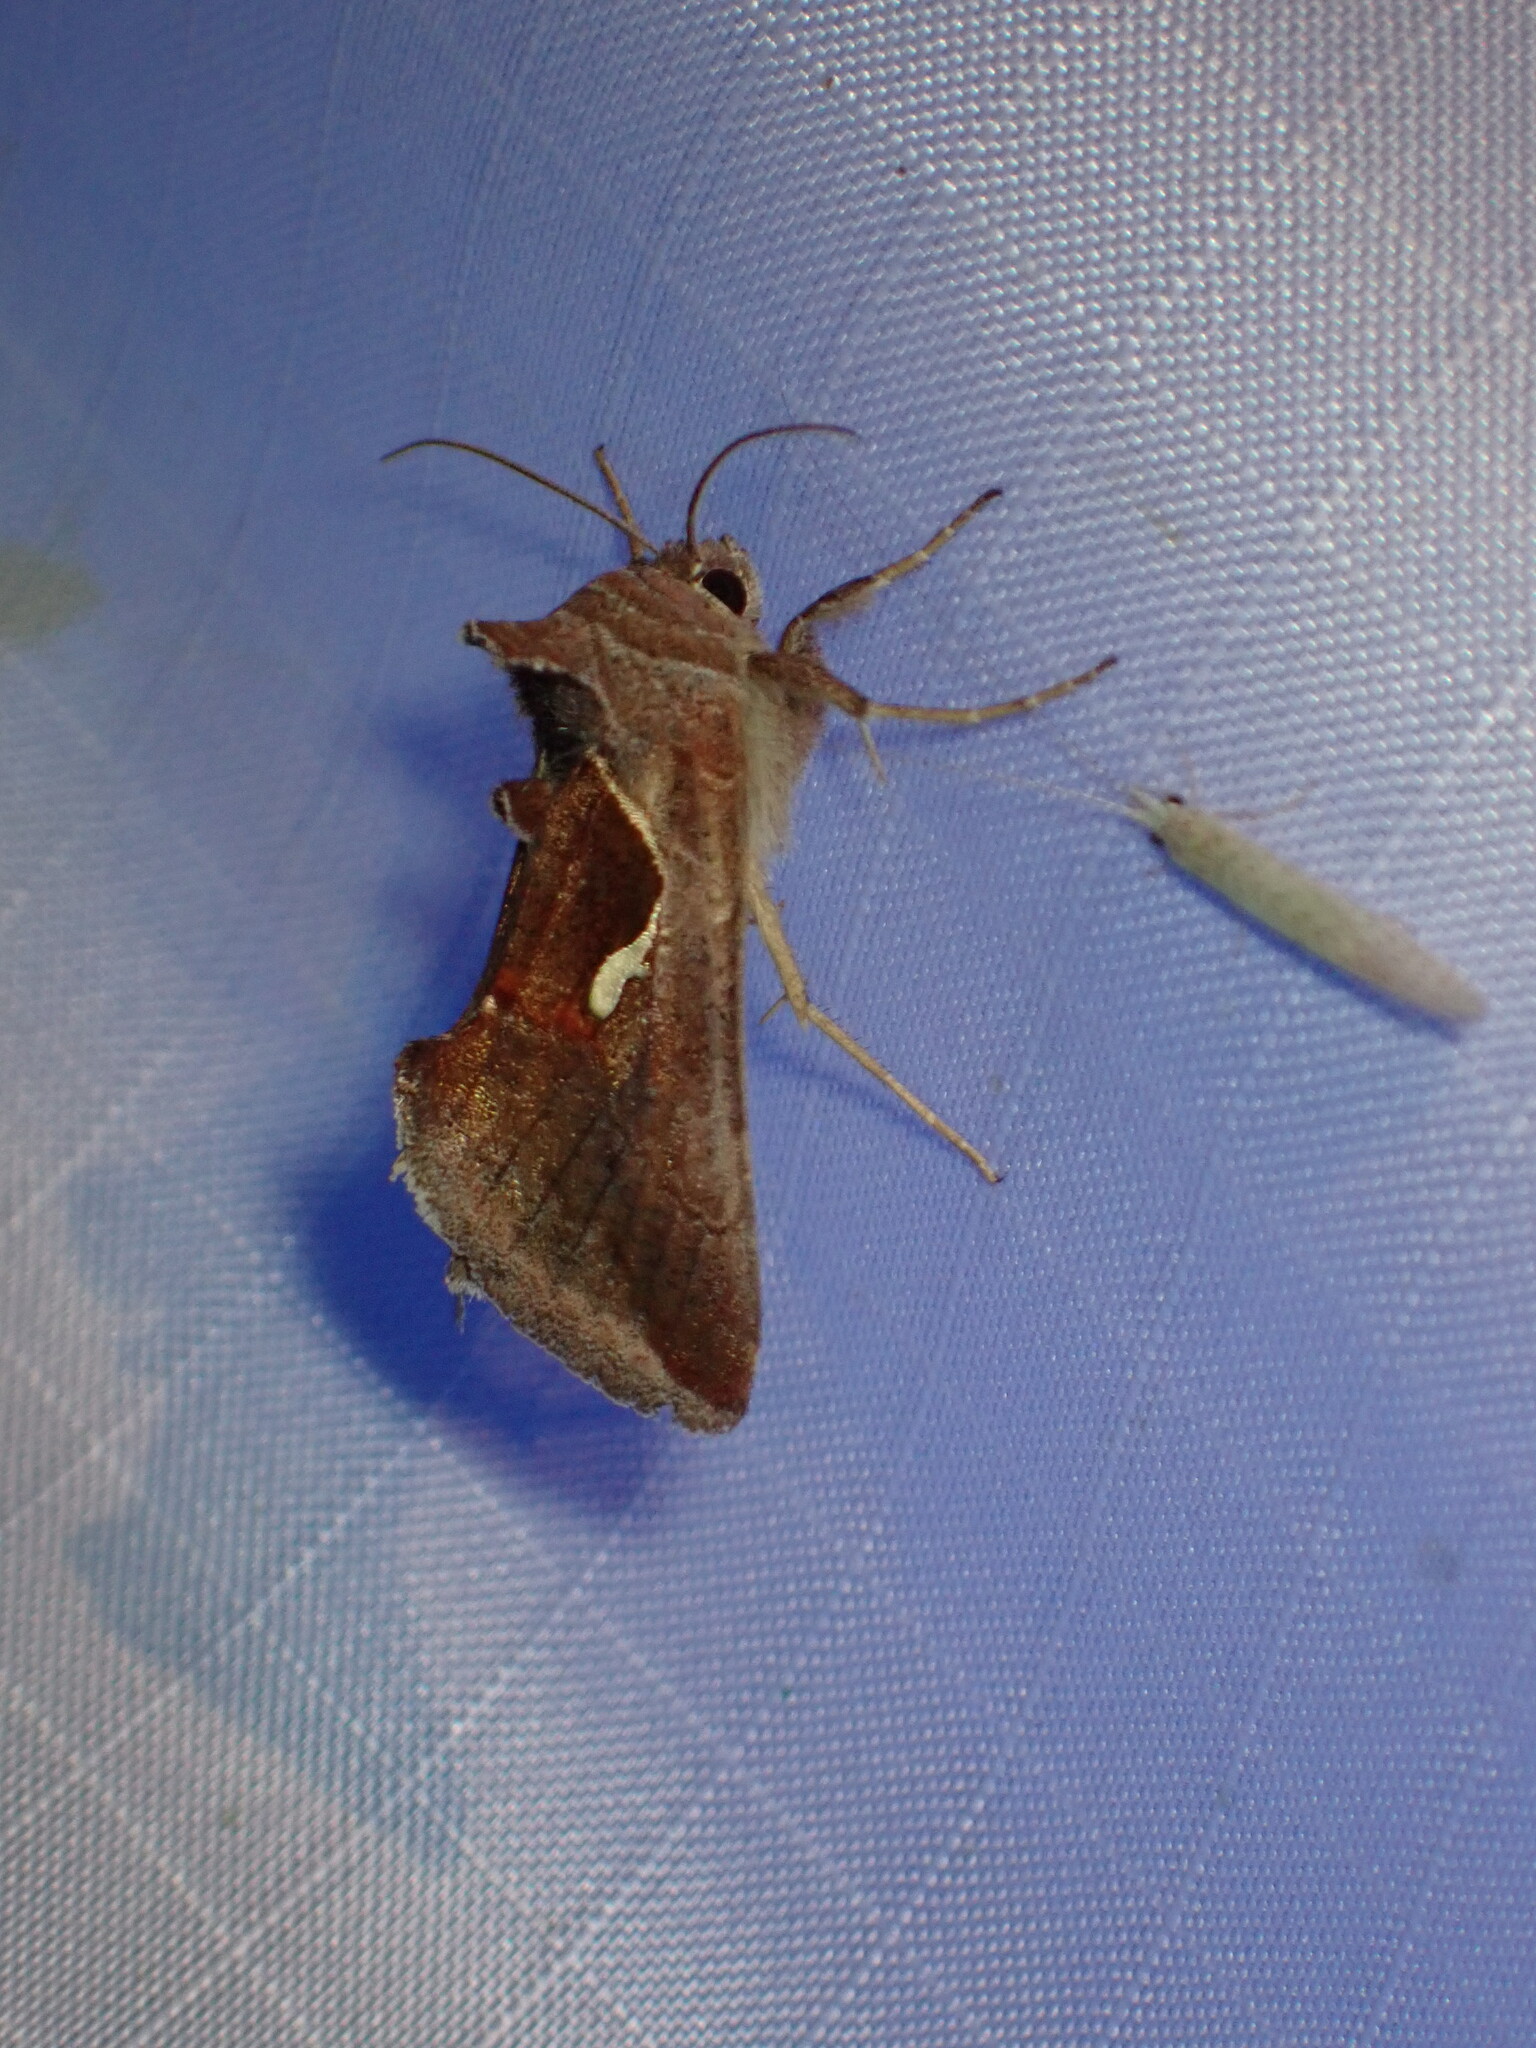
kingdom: Animalia
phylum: Arthropoda
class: Insecta
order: Lepidoptera
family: Noctuidae
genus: Anagrapha
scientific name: Anagrapha falcifera
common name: Celery looper
